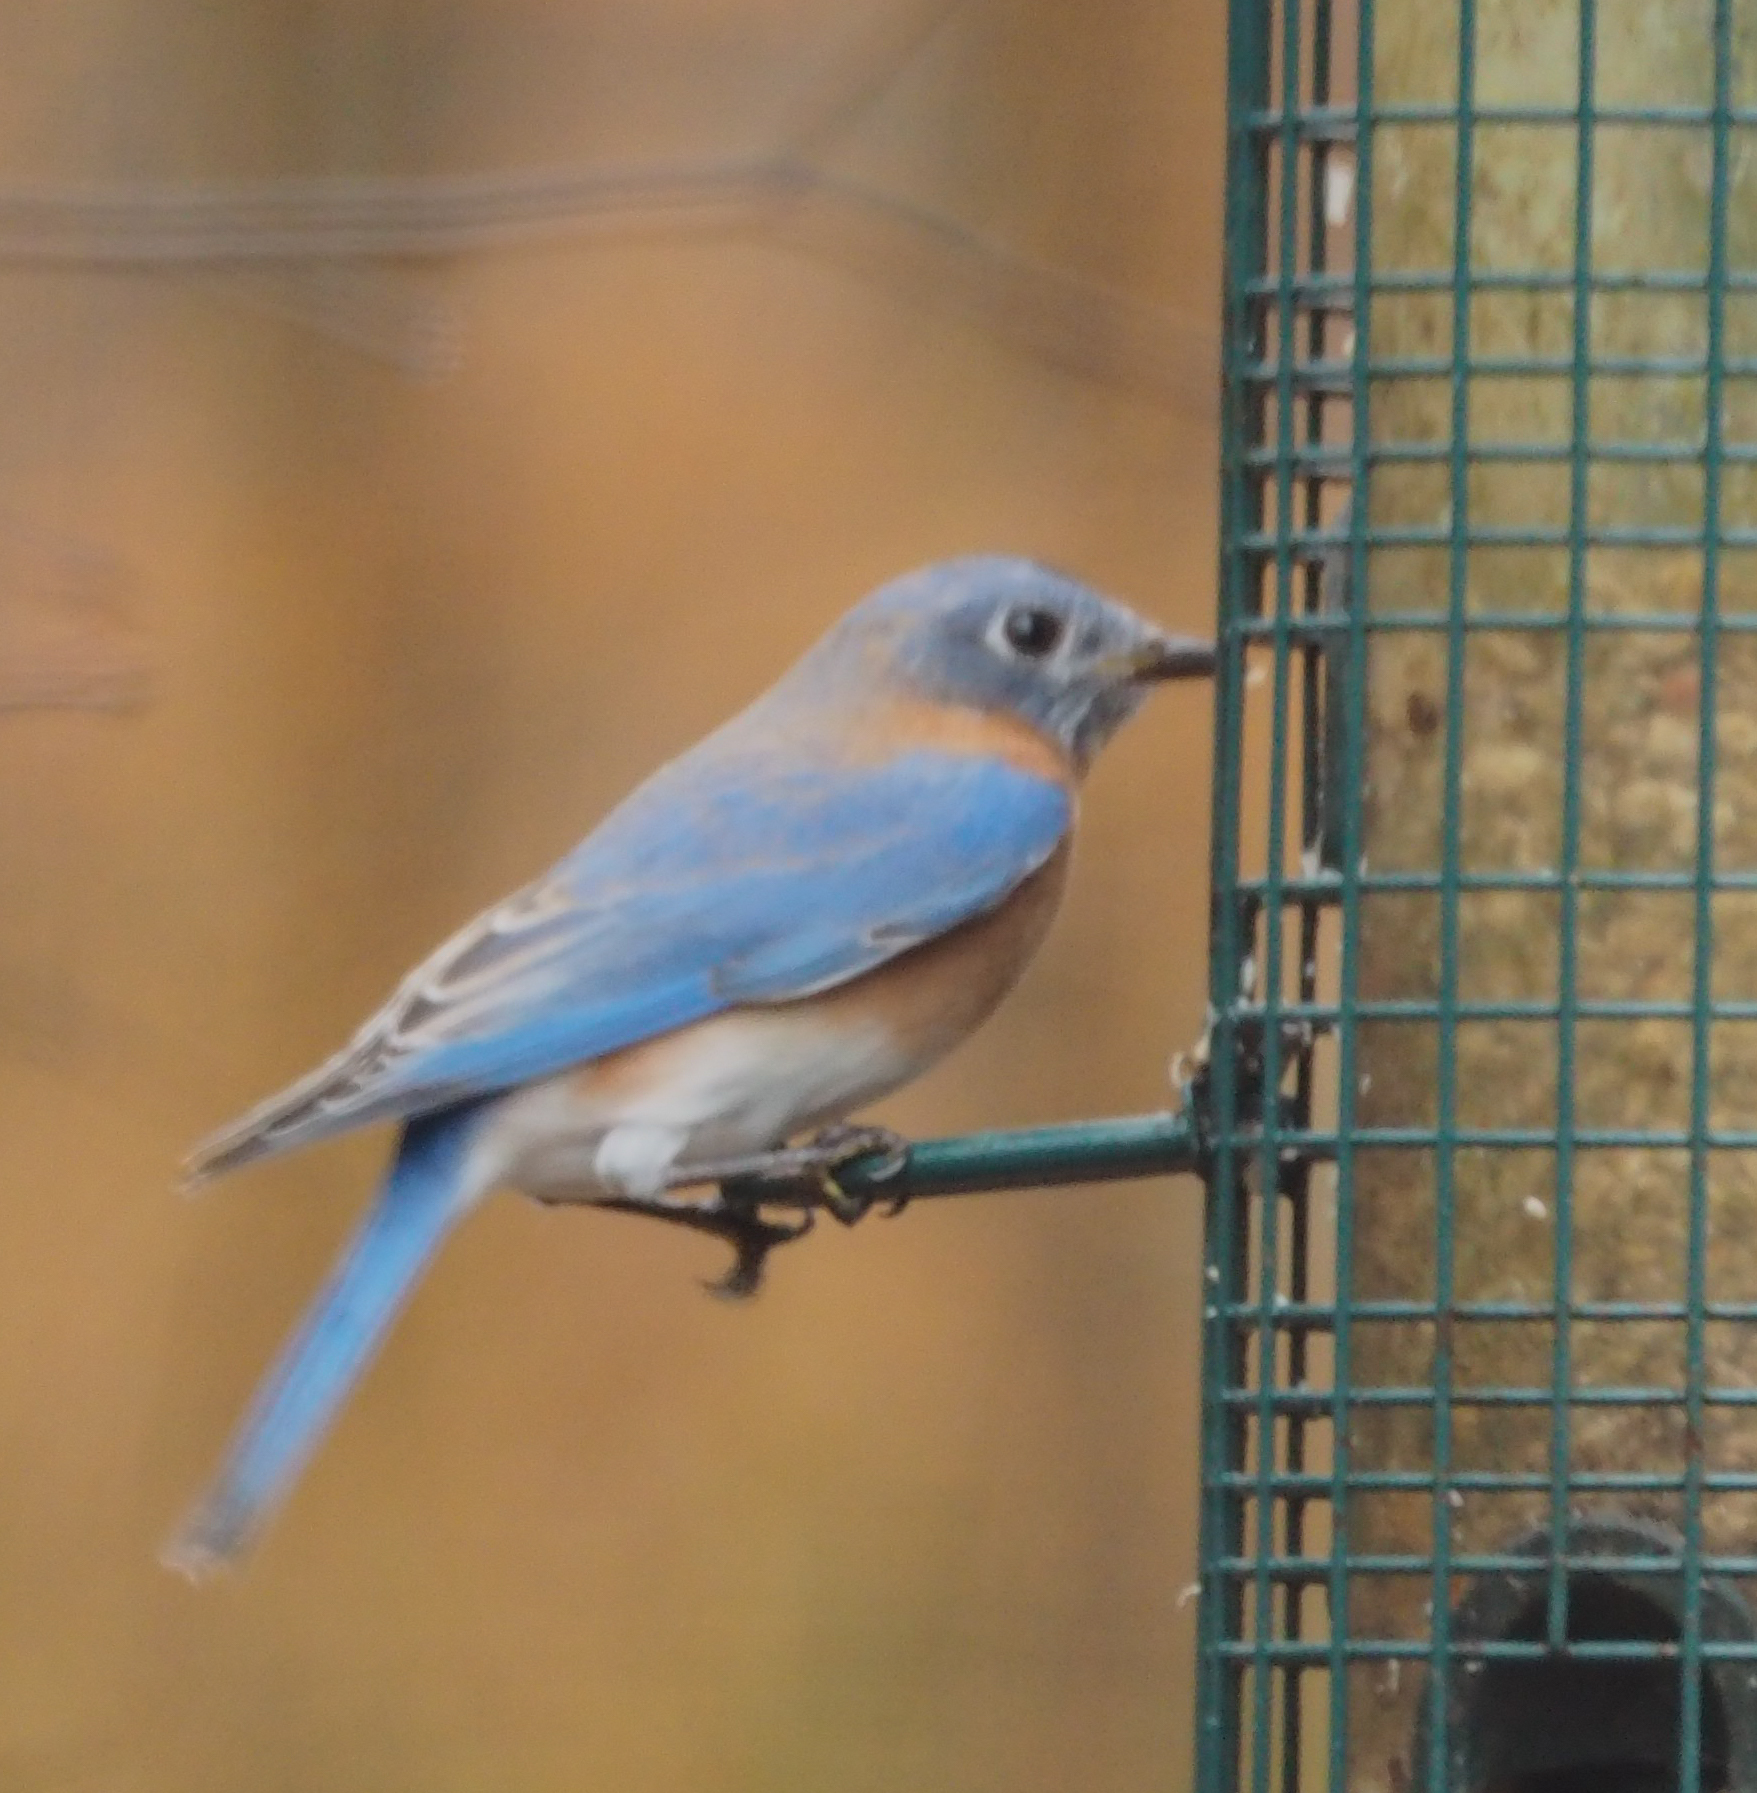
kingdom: Animalia
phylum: Chordata
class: Aves
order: Passeriformes
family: Turdidae
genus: Sialia
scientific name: Sialia sialis
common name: Eastern bluebird
